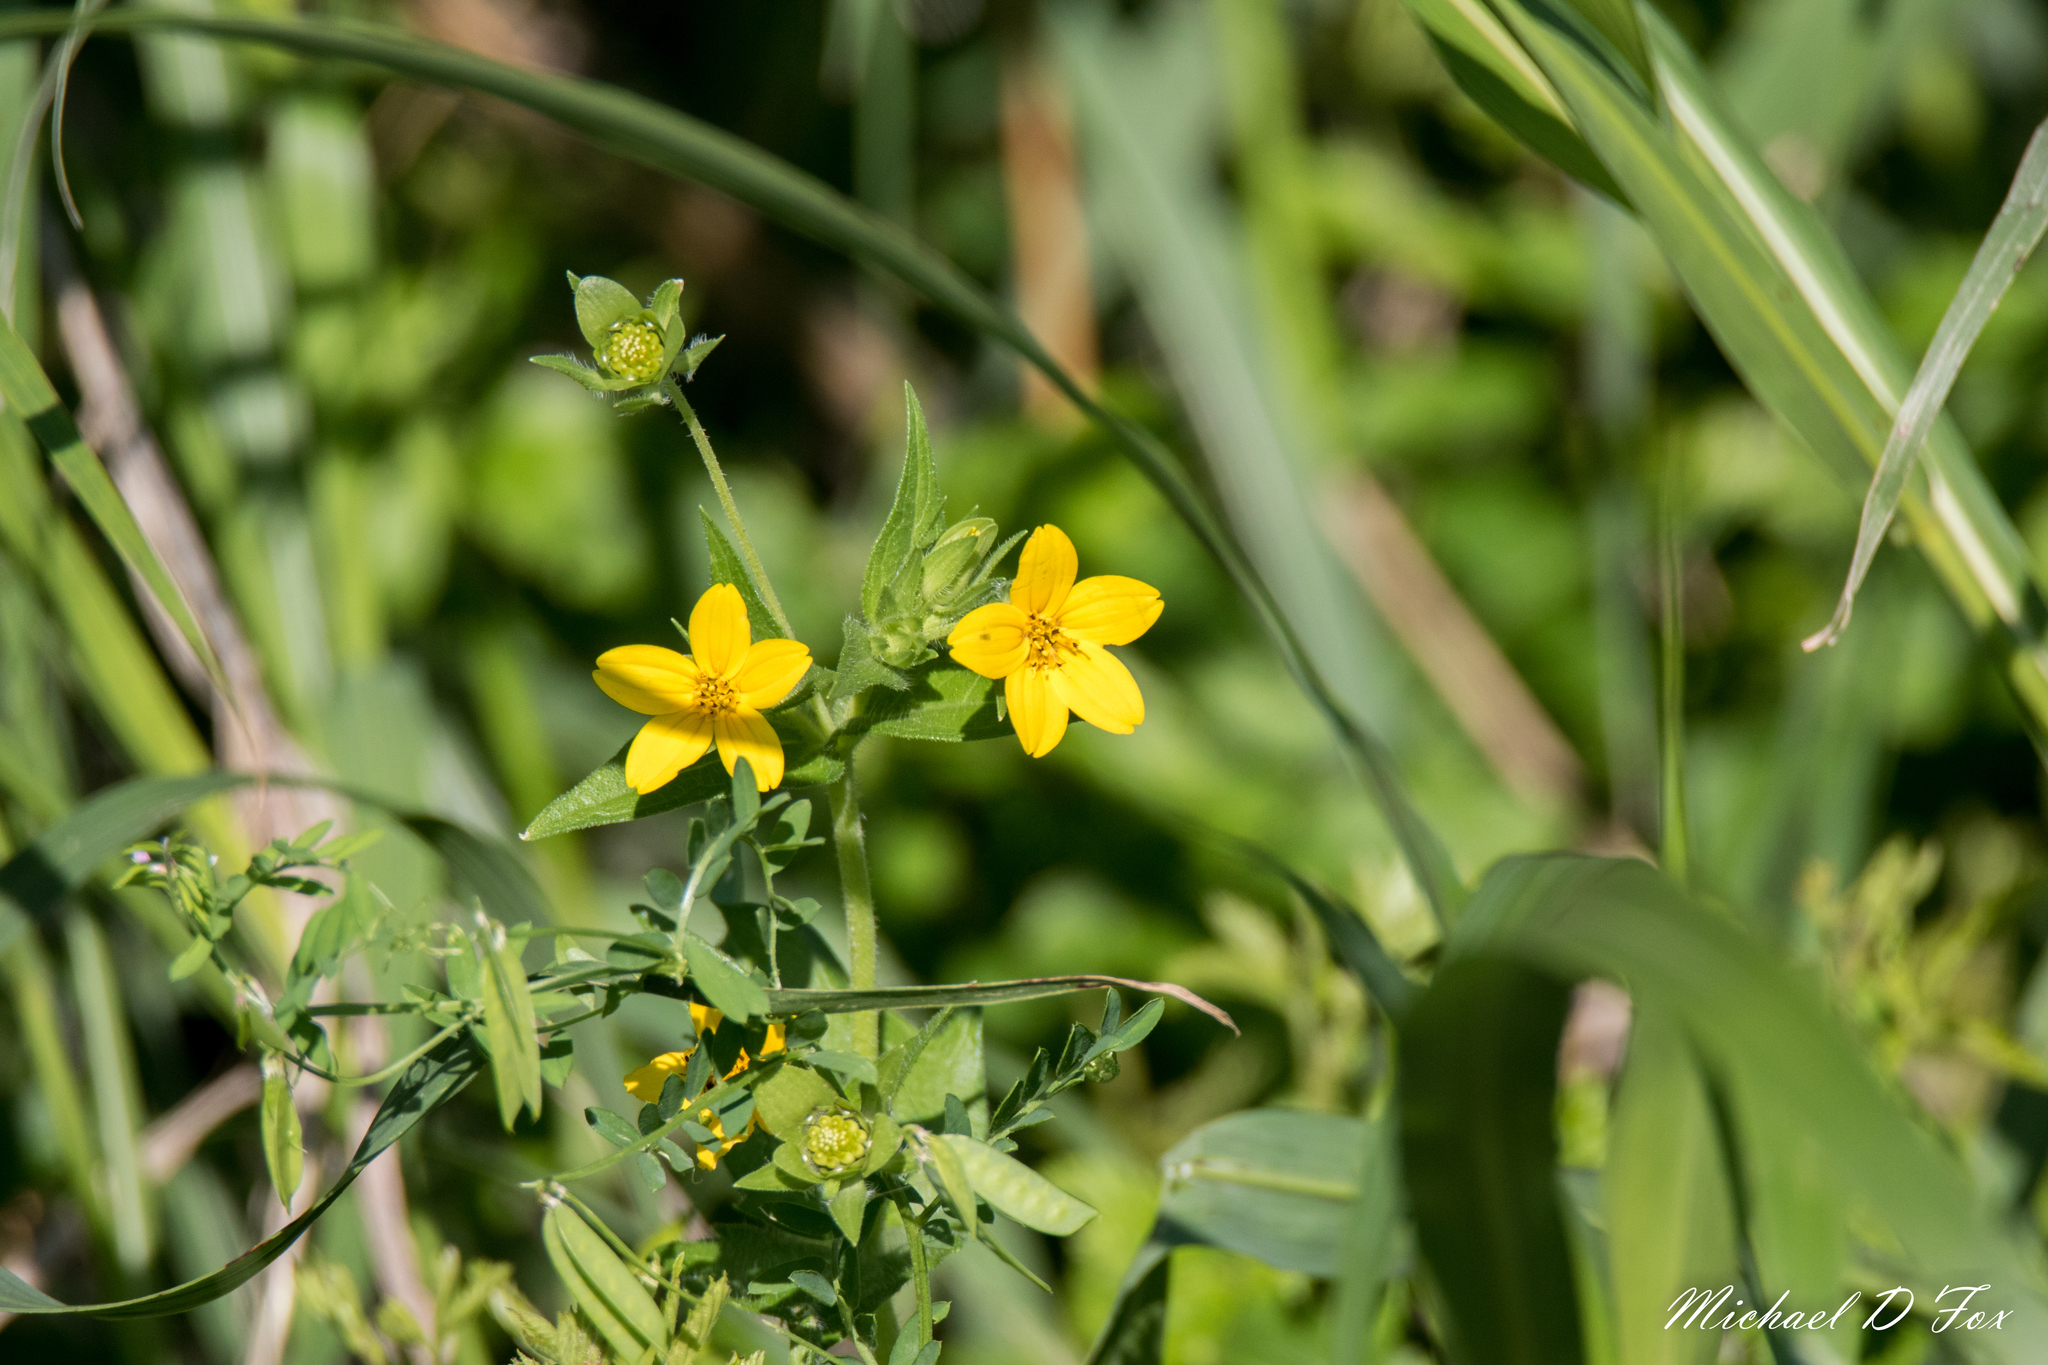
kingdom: Plantae
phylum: Tracheophyta
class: Magnoliopsida
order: Asterales
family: Asteraceae
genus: Lindheimera
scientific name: Lindheimera texana
